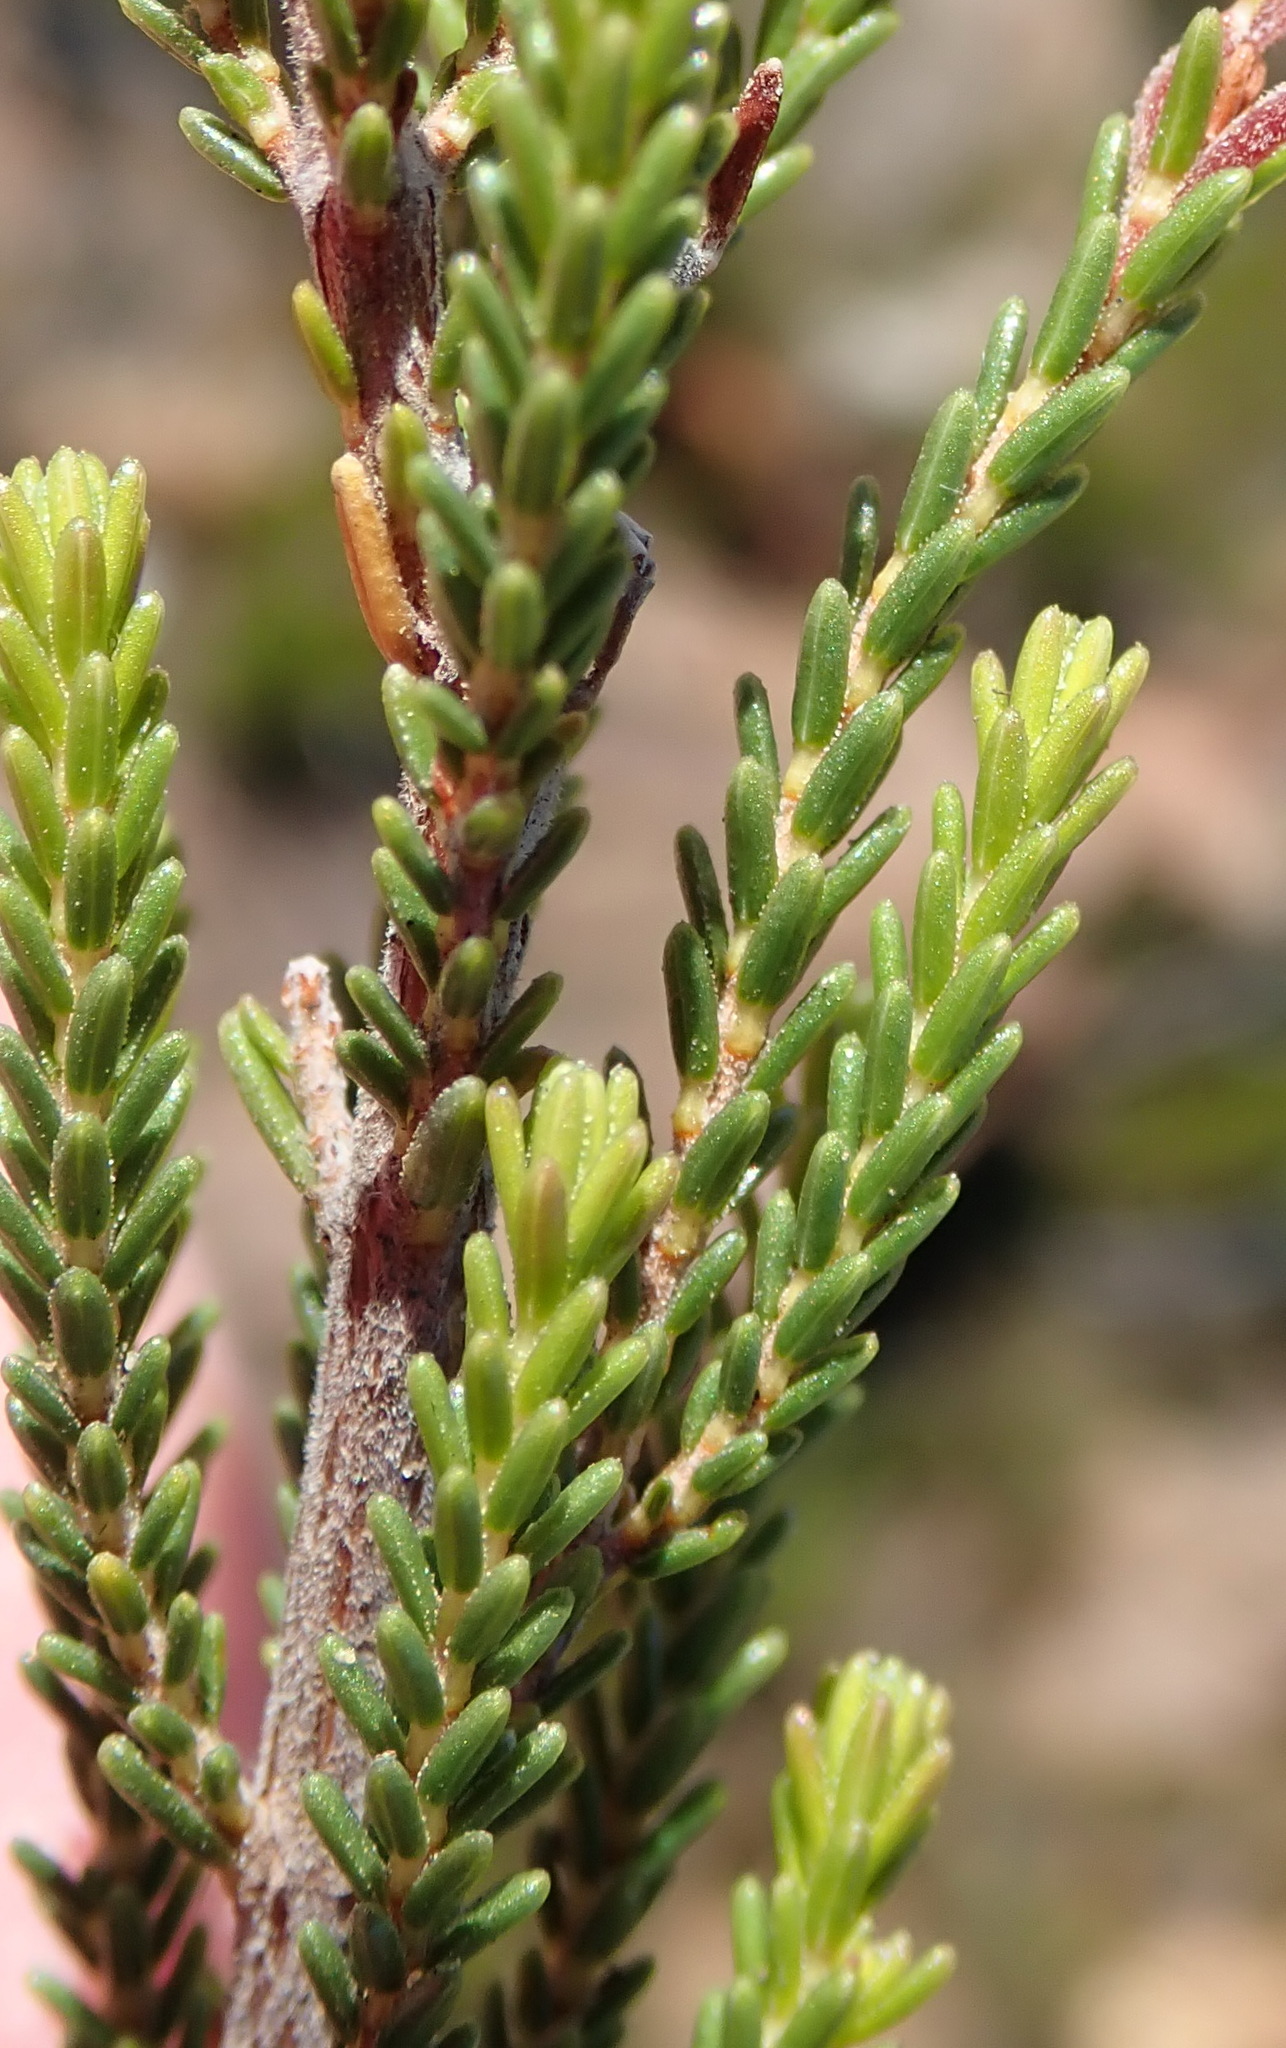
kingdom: Plantae
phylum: Tracheophyta
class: Magnoliopsida
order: Ericales
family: Ericaceae
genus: Erica
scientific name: Erica recta
